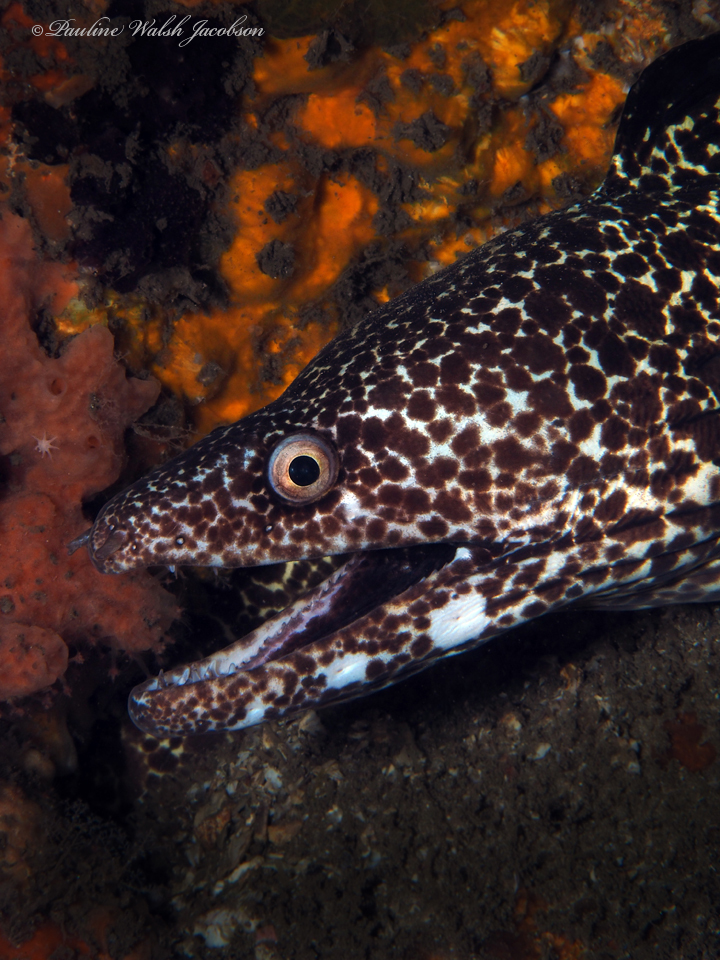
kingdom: Animalia
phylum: Chordata
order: Anguilliformes
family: Muraenidae
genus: Gymnothorax
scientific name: Gymnothorax moringa
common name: Spotted moray
